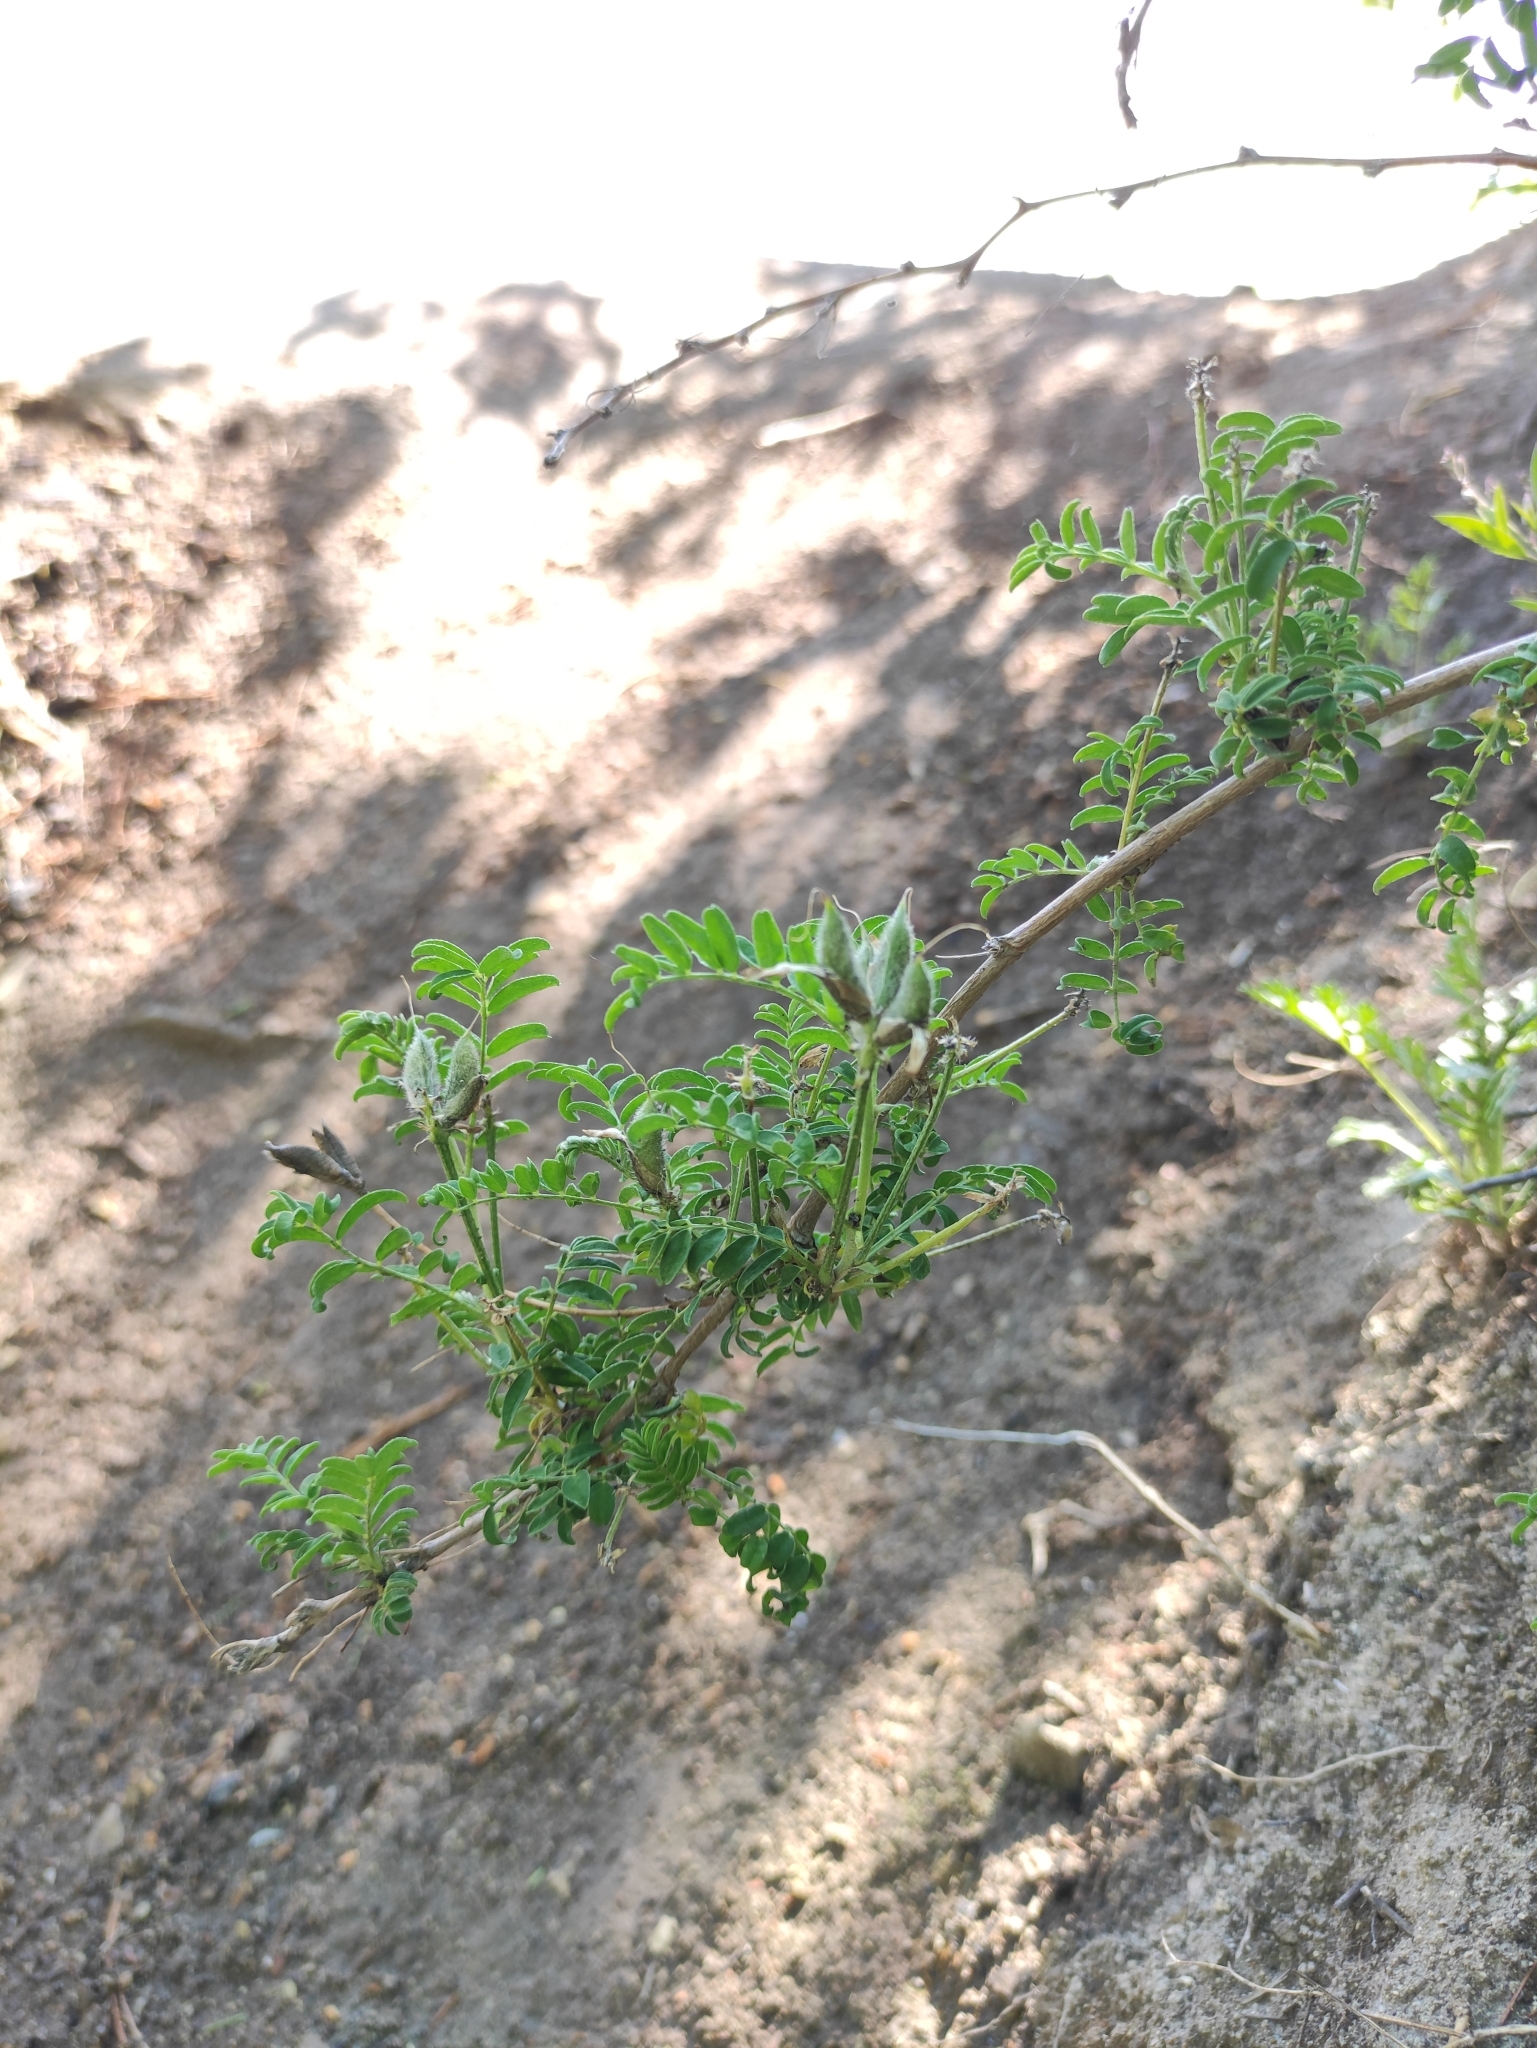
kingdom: Plantae
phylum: Tracheophyta
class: Magnoliopsida
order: Fabales
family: Fabaceae
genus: Astragalus
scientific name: Astragalus syriacus
